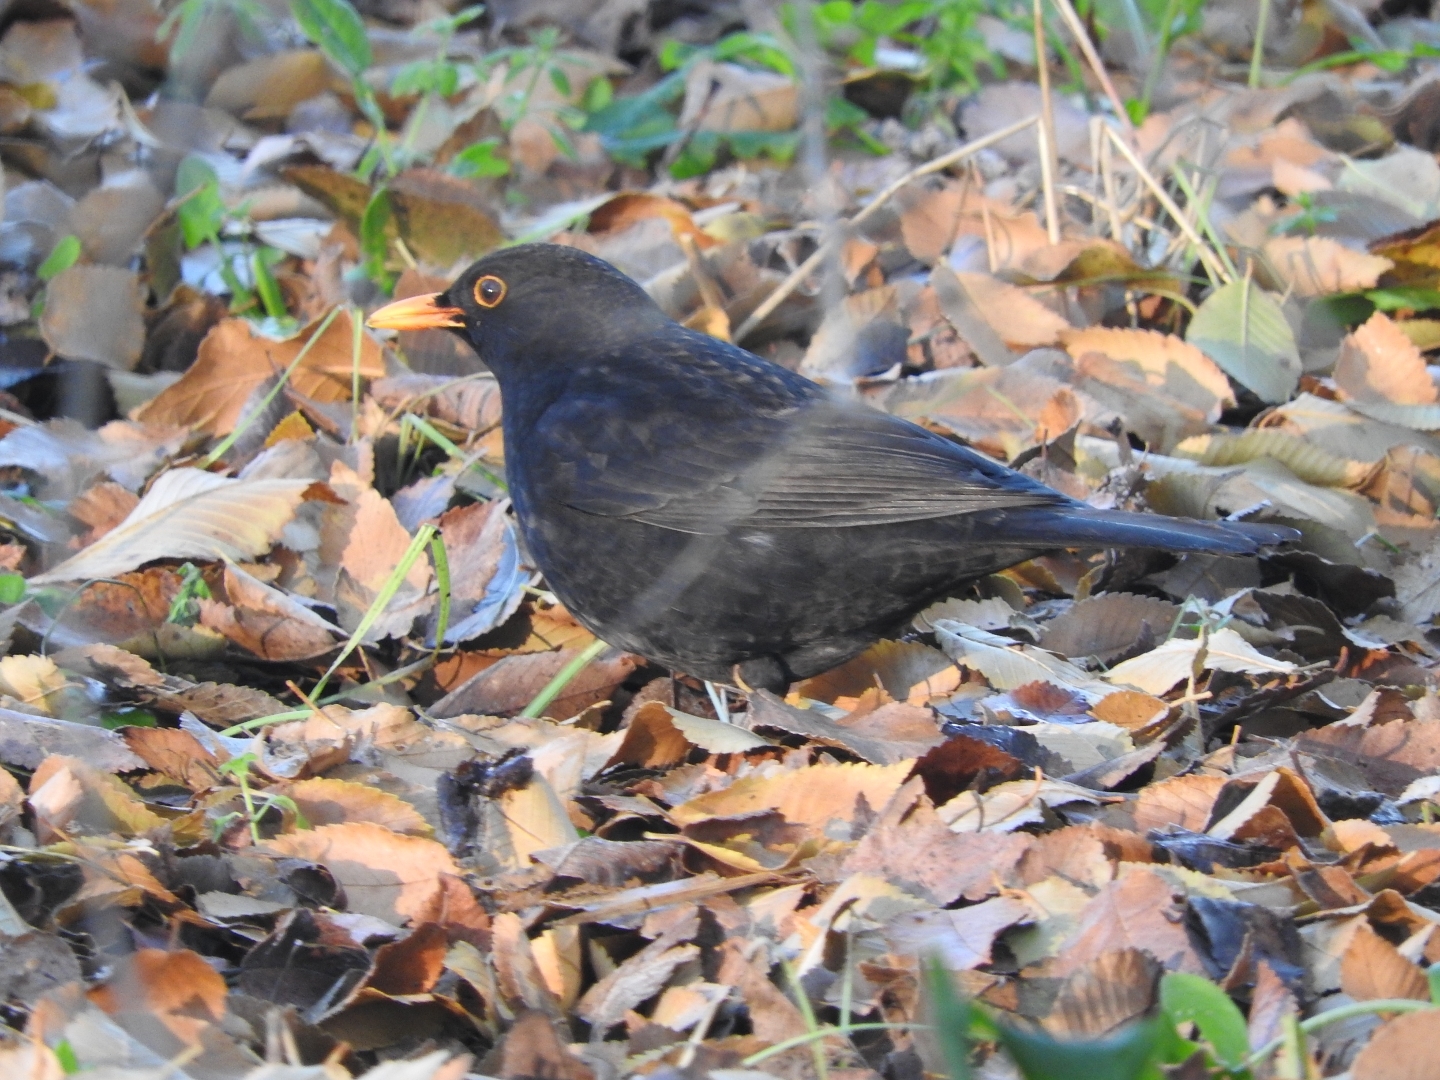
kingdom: Animalia
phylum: Chordata
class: Aves
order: Passeriformes
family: Turdidae
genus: Turdus
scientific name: Turdus merula
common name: Common blackbird
